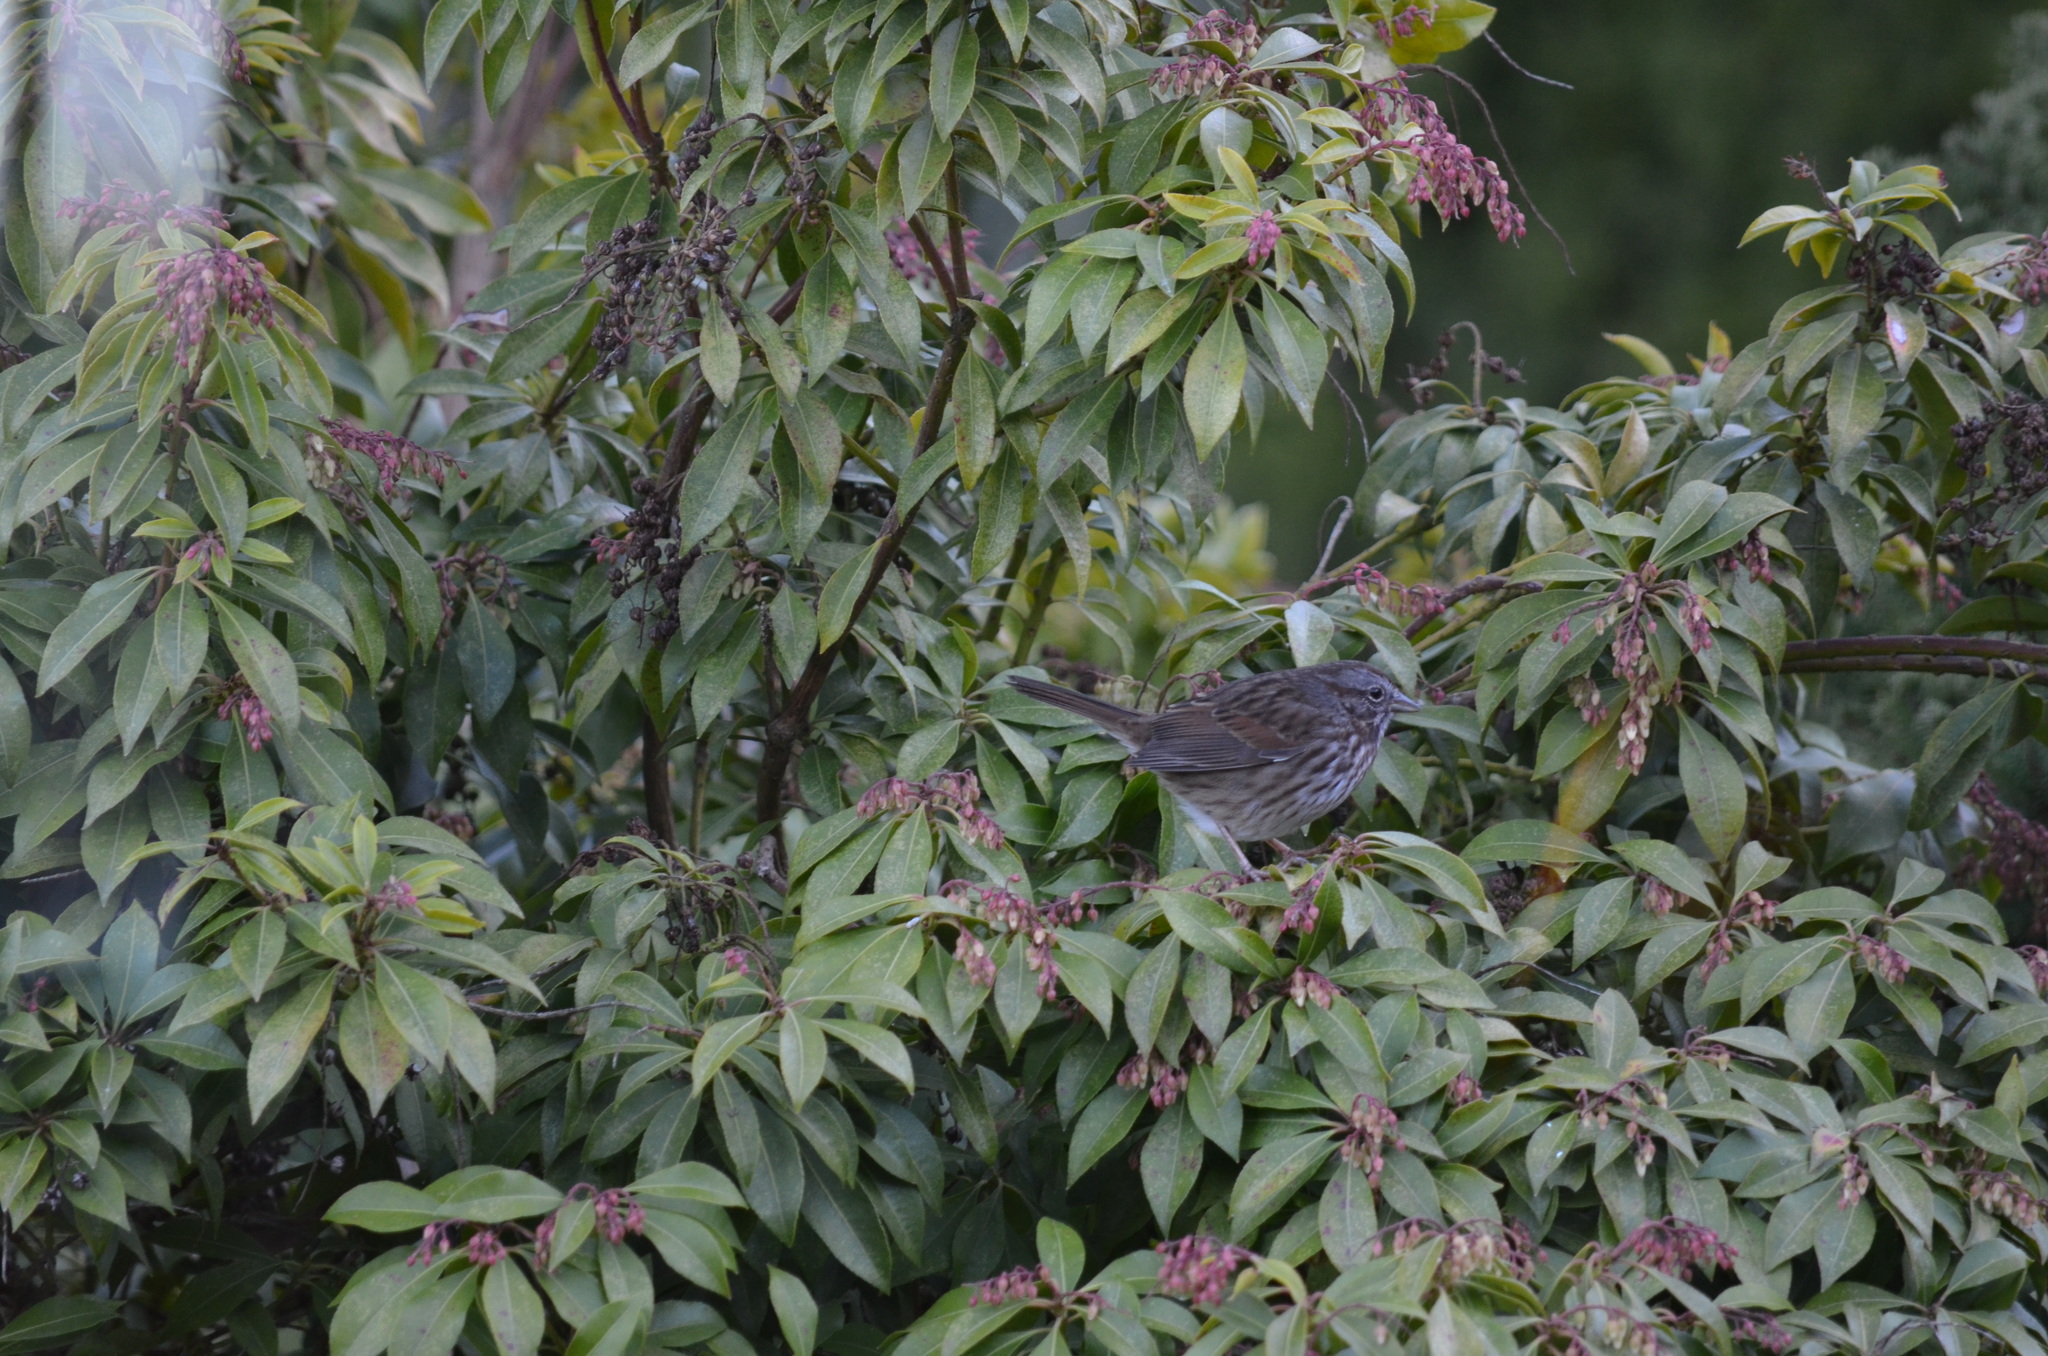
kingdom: Animalia
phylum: Chordata
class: Aves
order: Passeriformes
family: Passerellidae
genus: Melospiza
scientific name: Melospiza melodia
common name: Song sparrow
